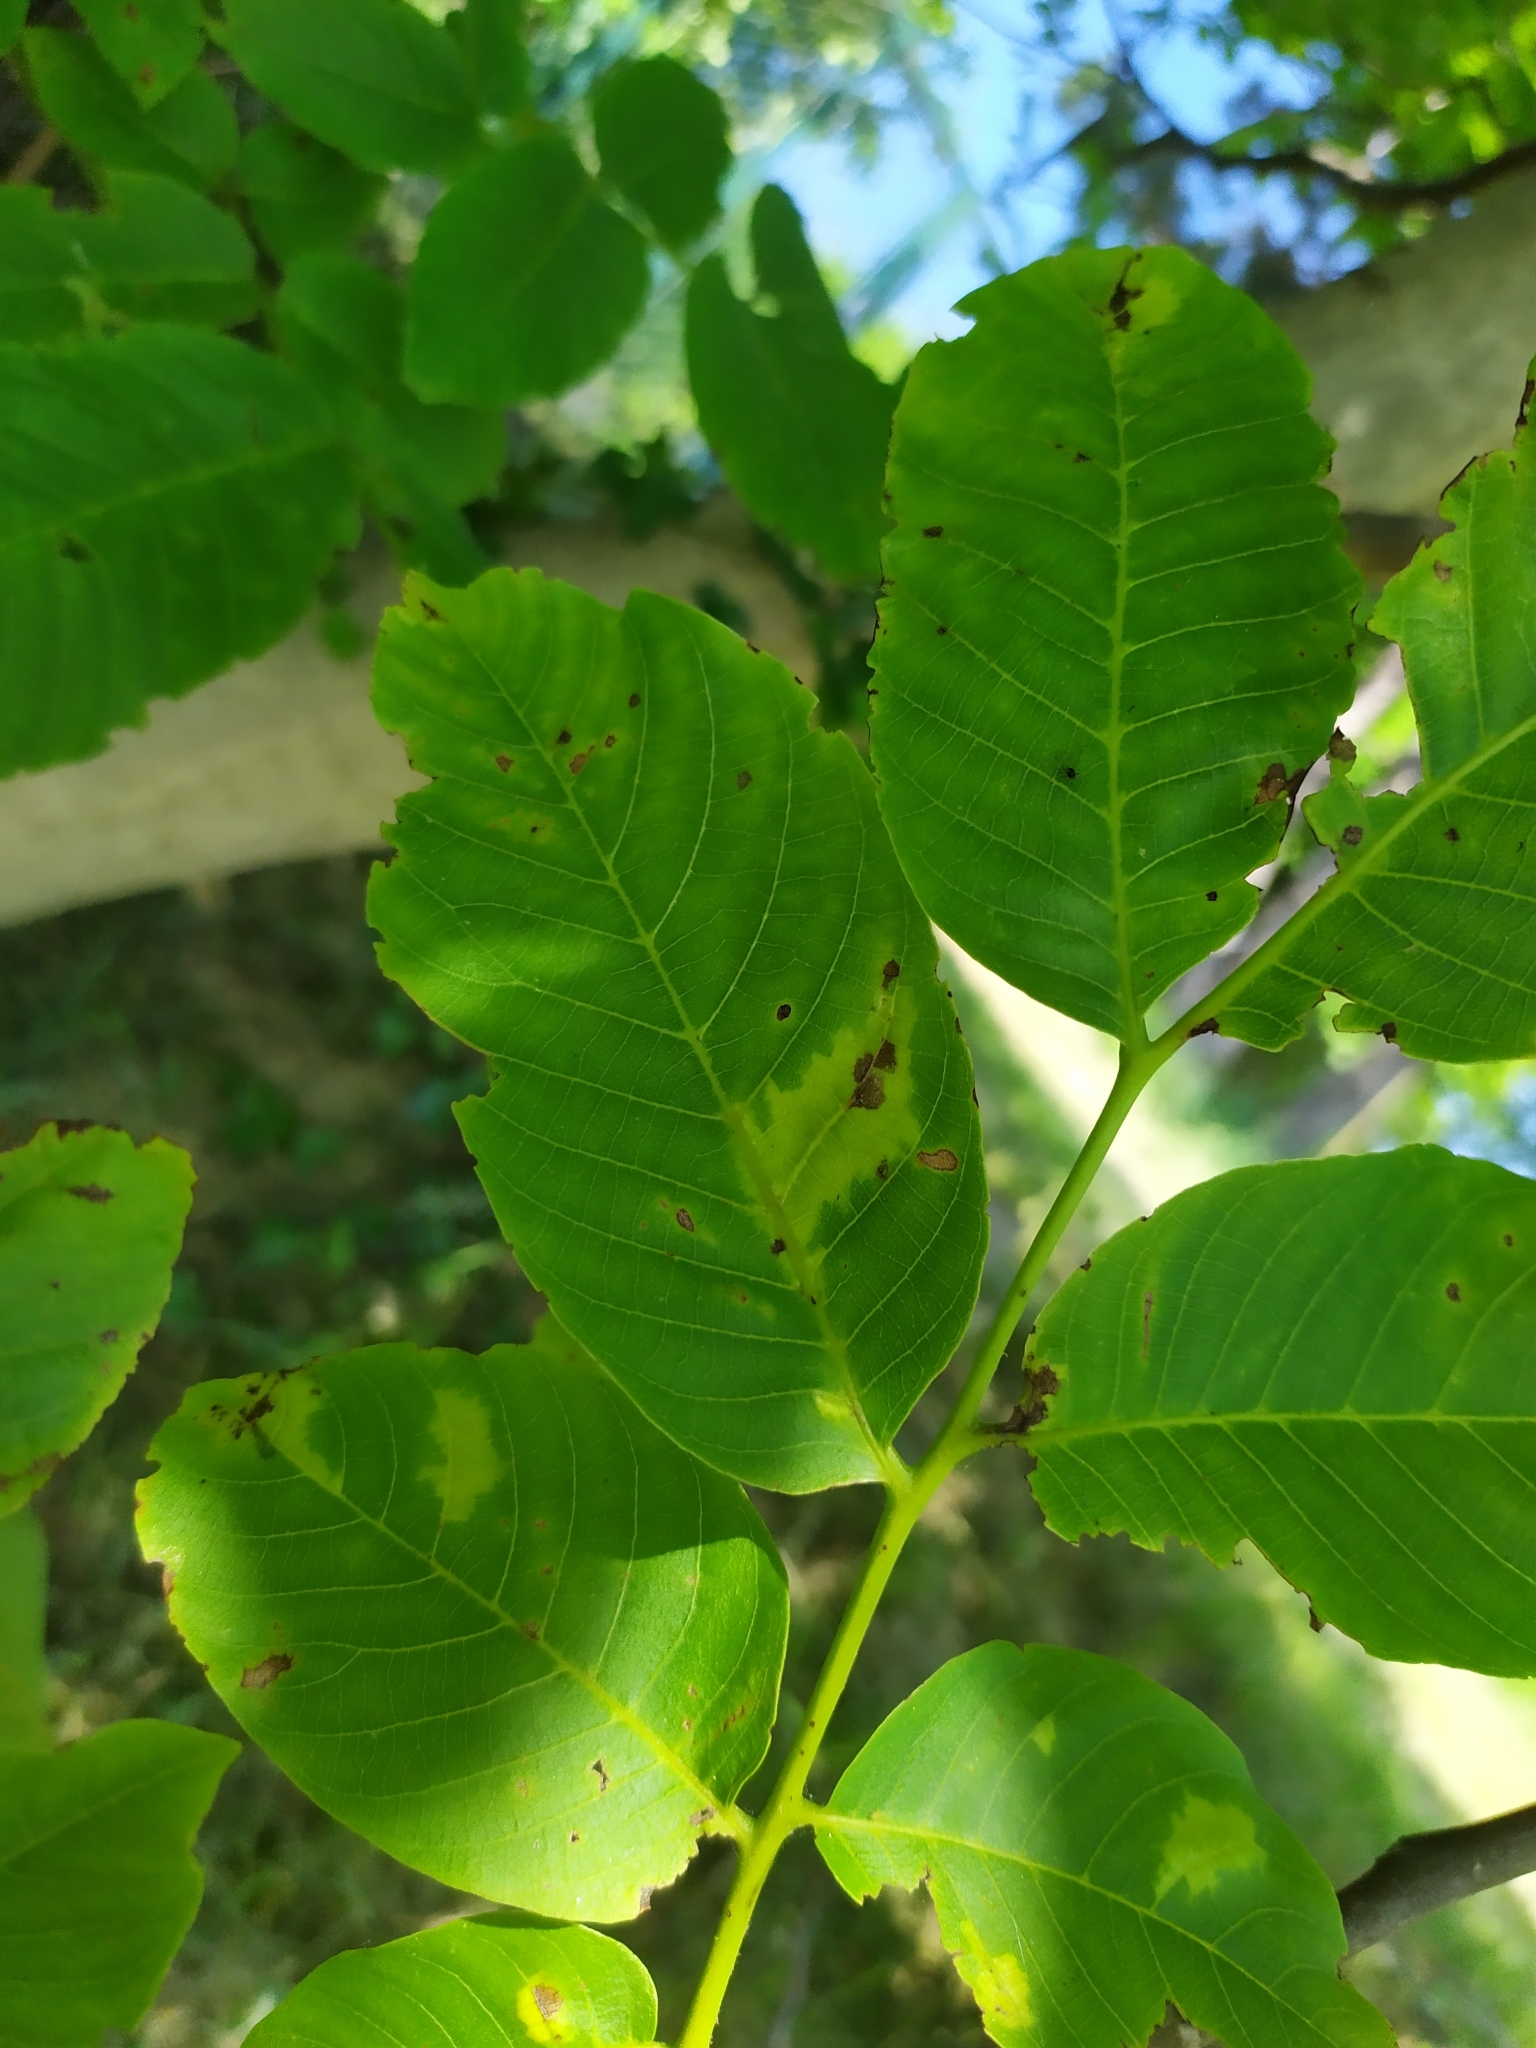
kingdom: Fungi
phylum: Basidiomycota
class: Exobasidiomycetes
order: Microstromatales
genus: Pseudomicrostroma
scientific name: Pseudomicrostroma juglandis
